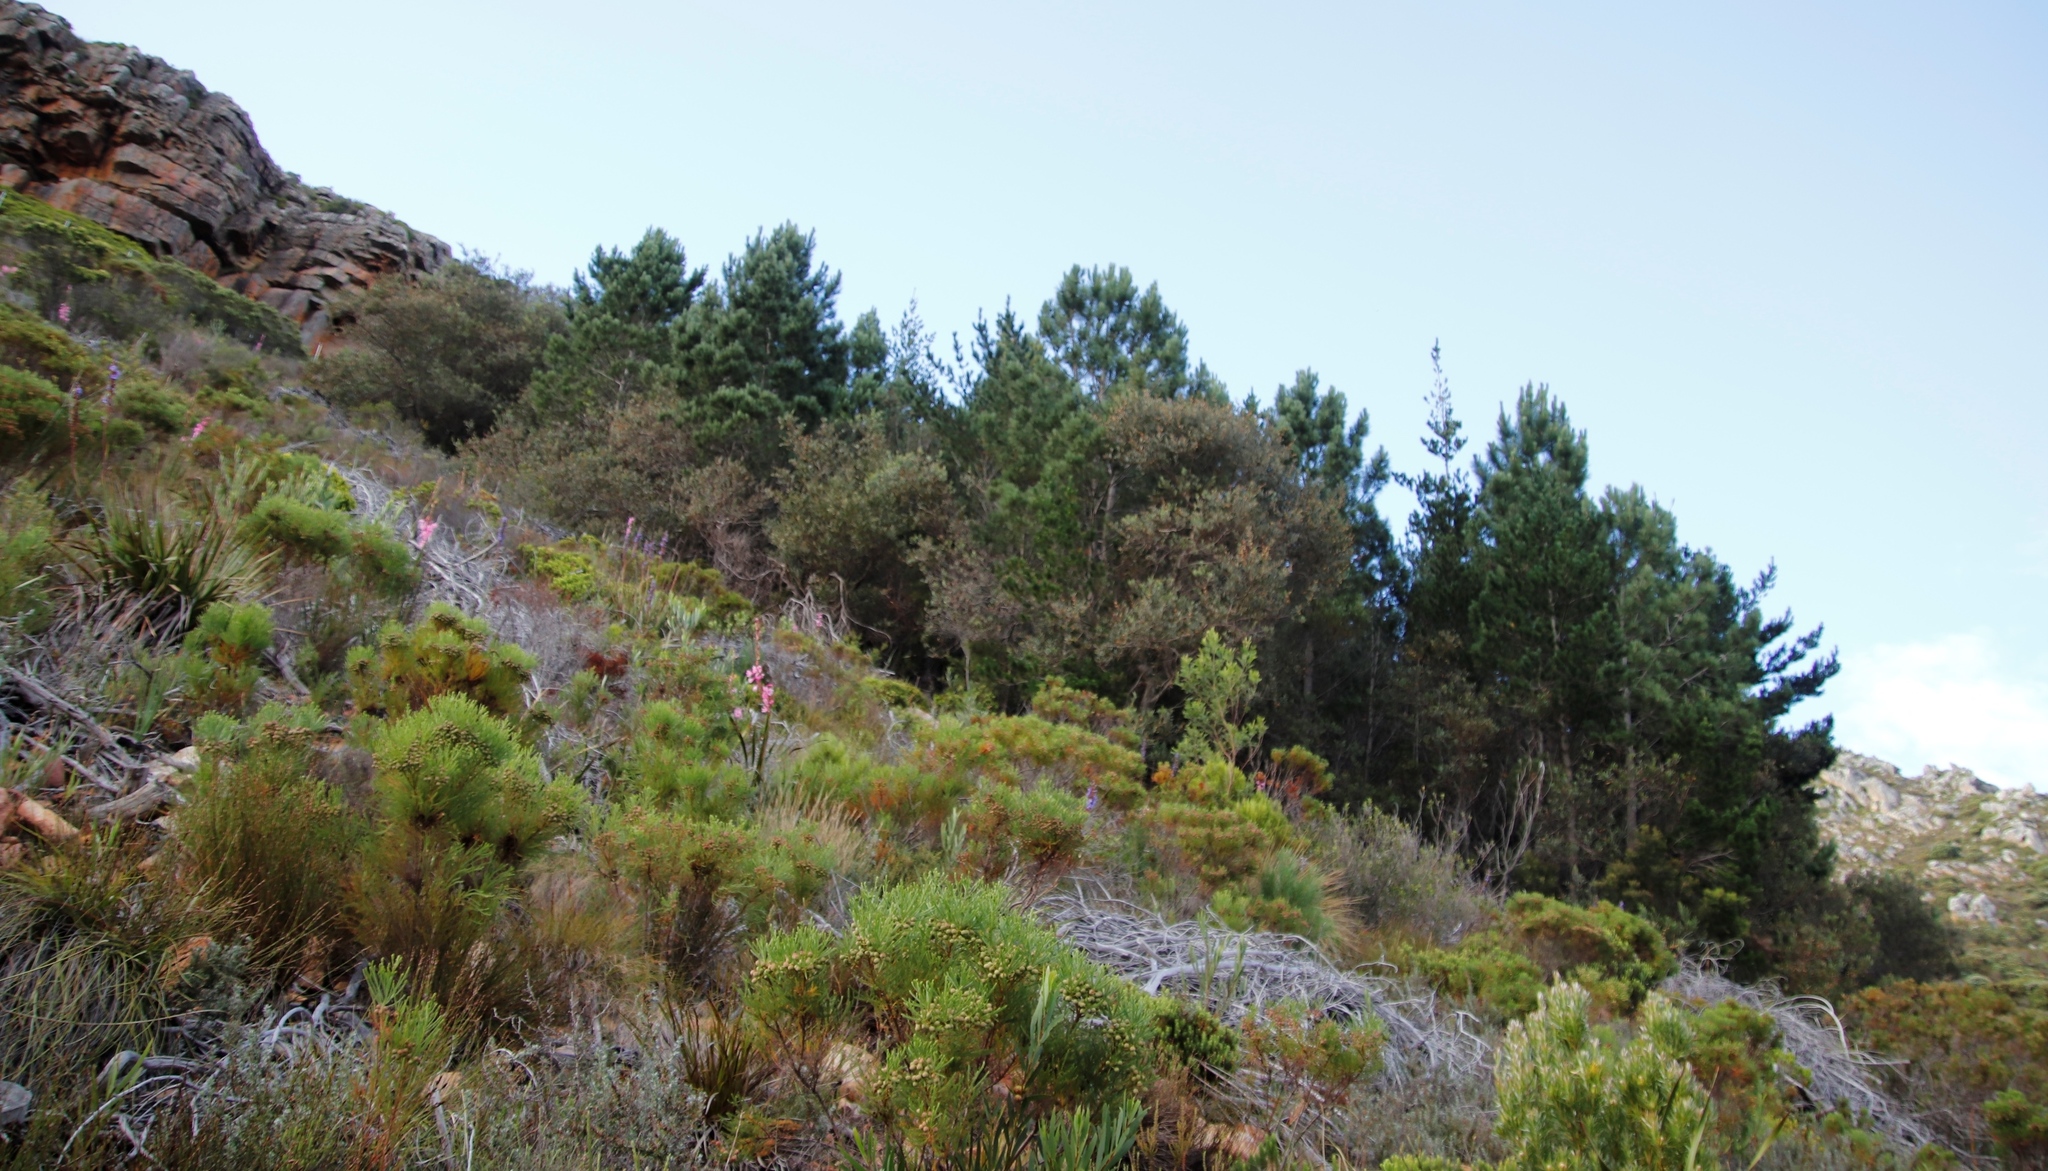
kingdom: Plantae
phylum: Tracheophyta
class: Magnoliopsida
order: Fabales
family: Fabaceae
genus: Acacia
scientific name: Acacia longifolia
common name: Sydney golden wattle
